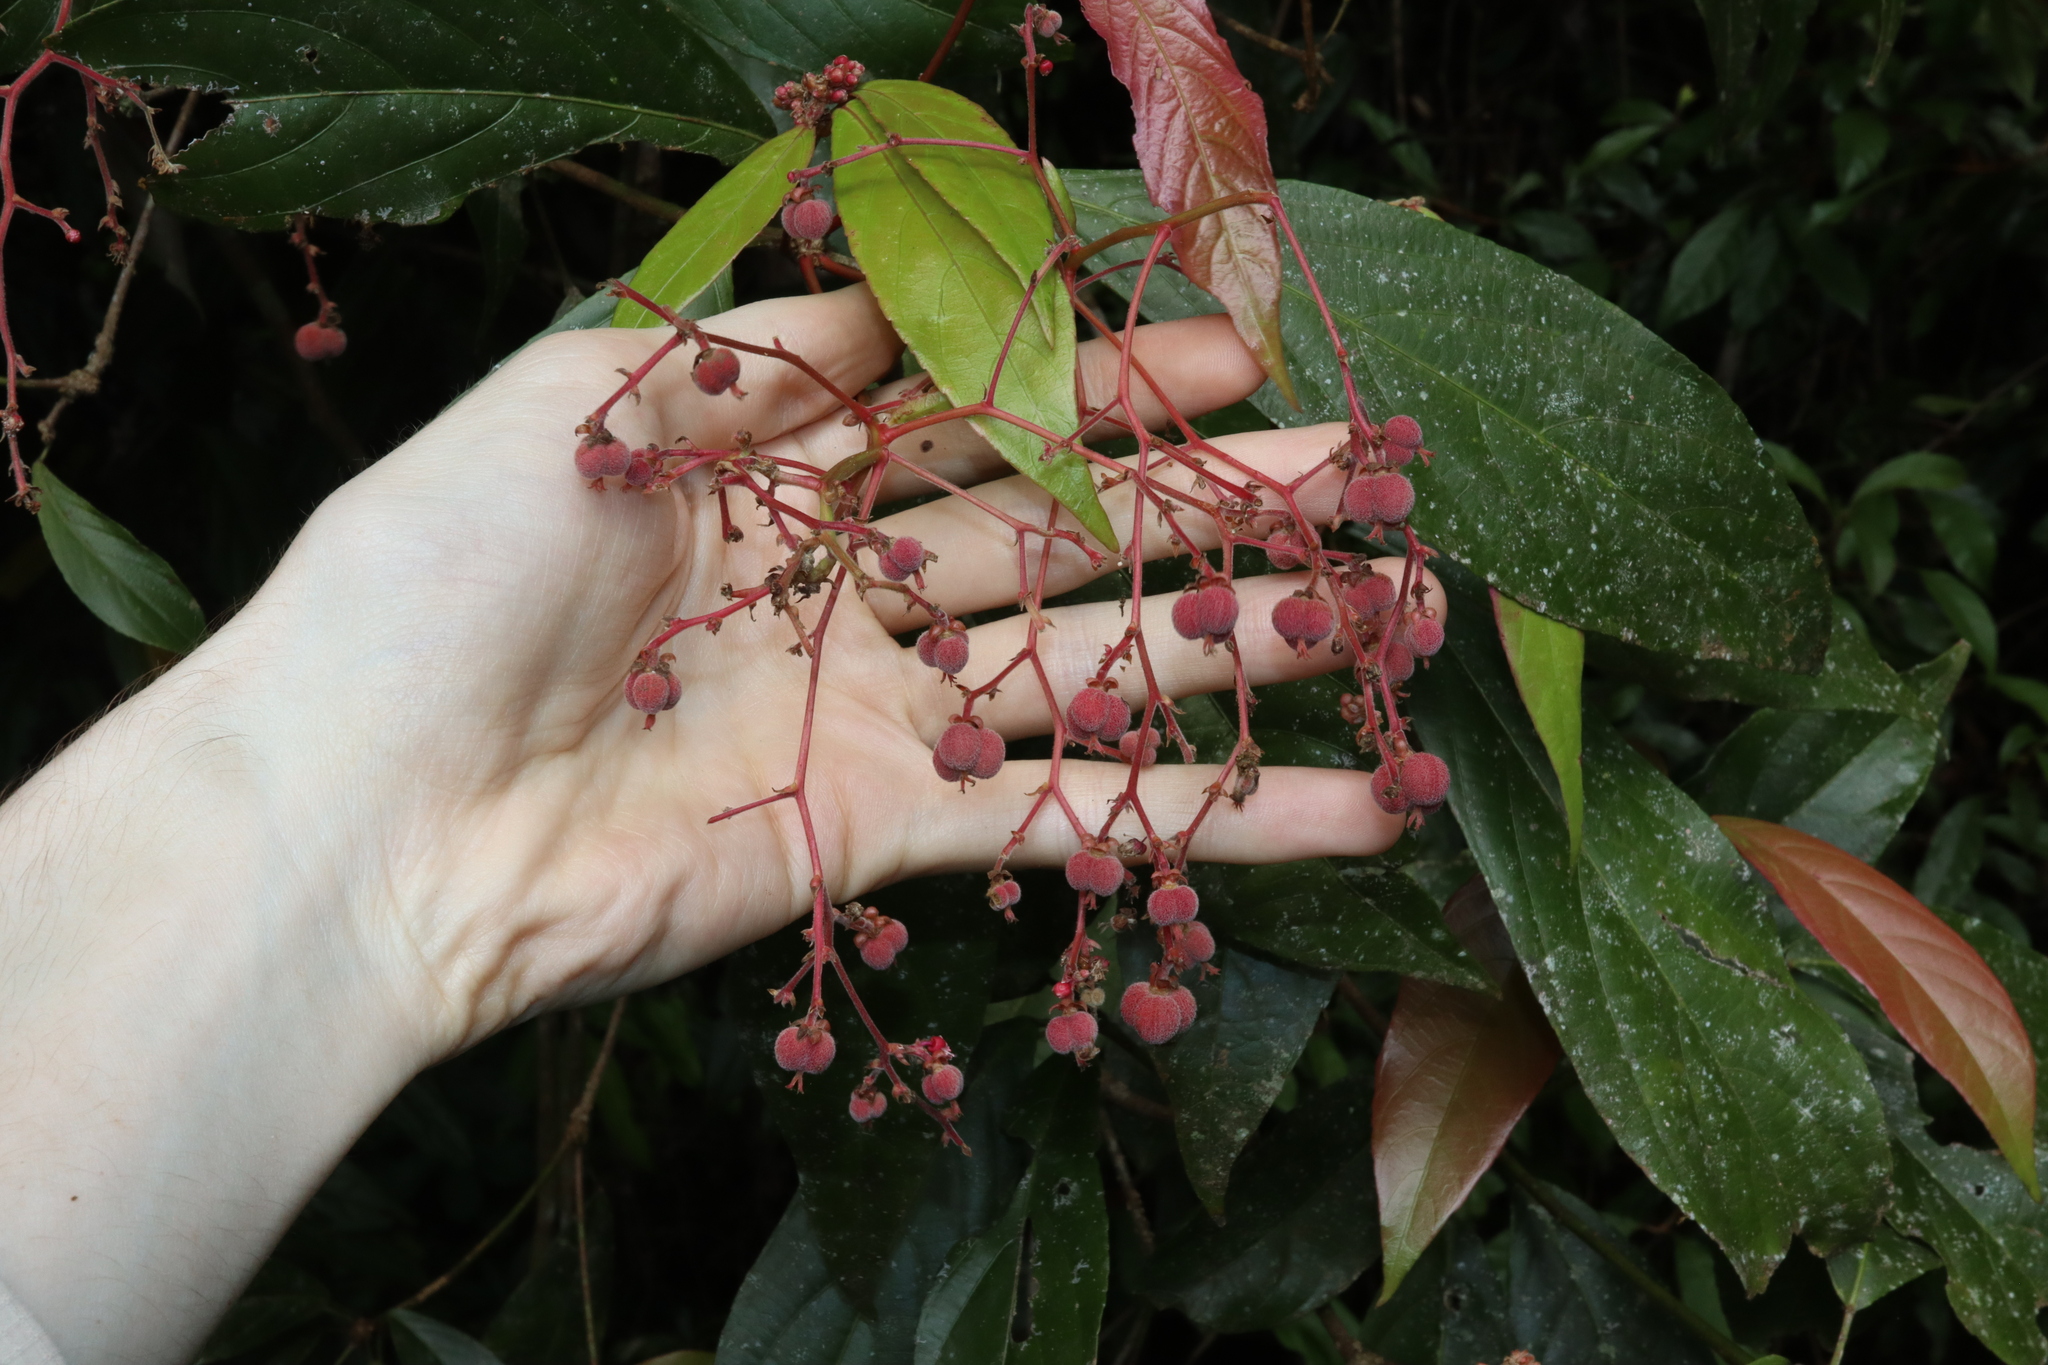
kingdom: Plantae
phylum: Tracheophyta
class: Magnoliopsida
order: Malpighiales
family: Euphorbiaceae
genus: Rockinghamia
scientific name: Rockinghamia angustifolia
